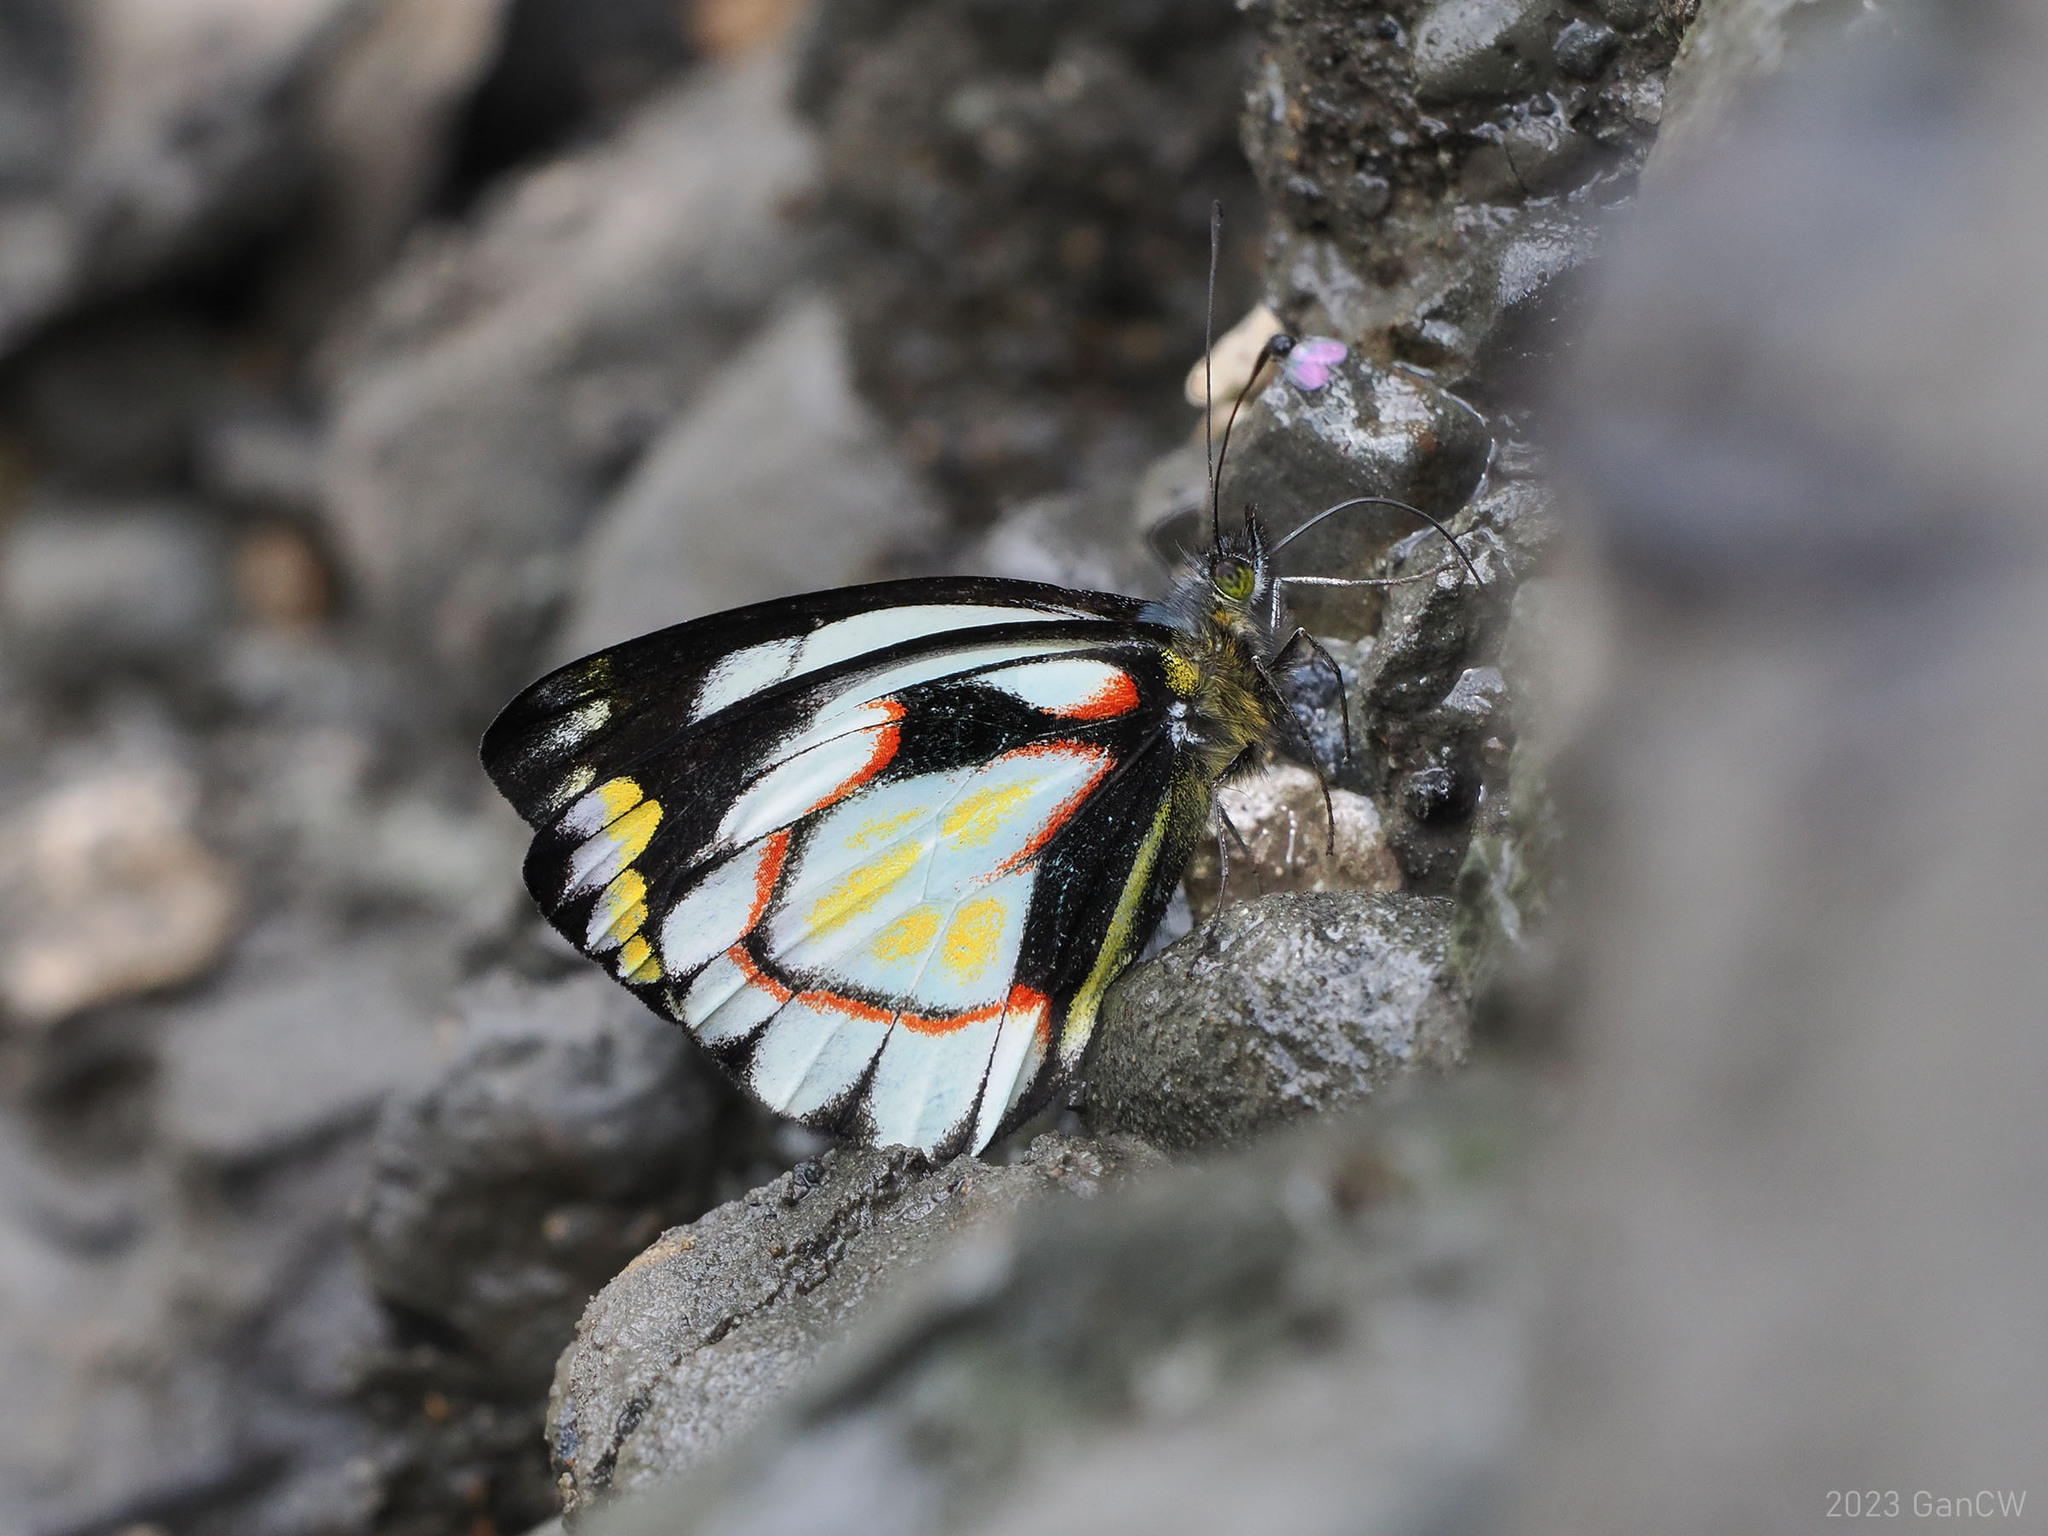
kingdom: Animalia
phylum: Arthropoda
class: Insecta
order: Lepidoptera
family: Pieridae
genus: Delias
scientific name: Delias flavistriga
